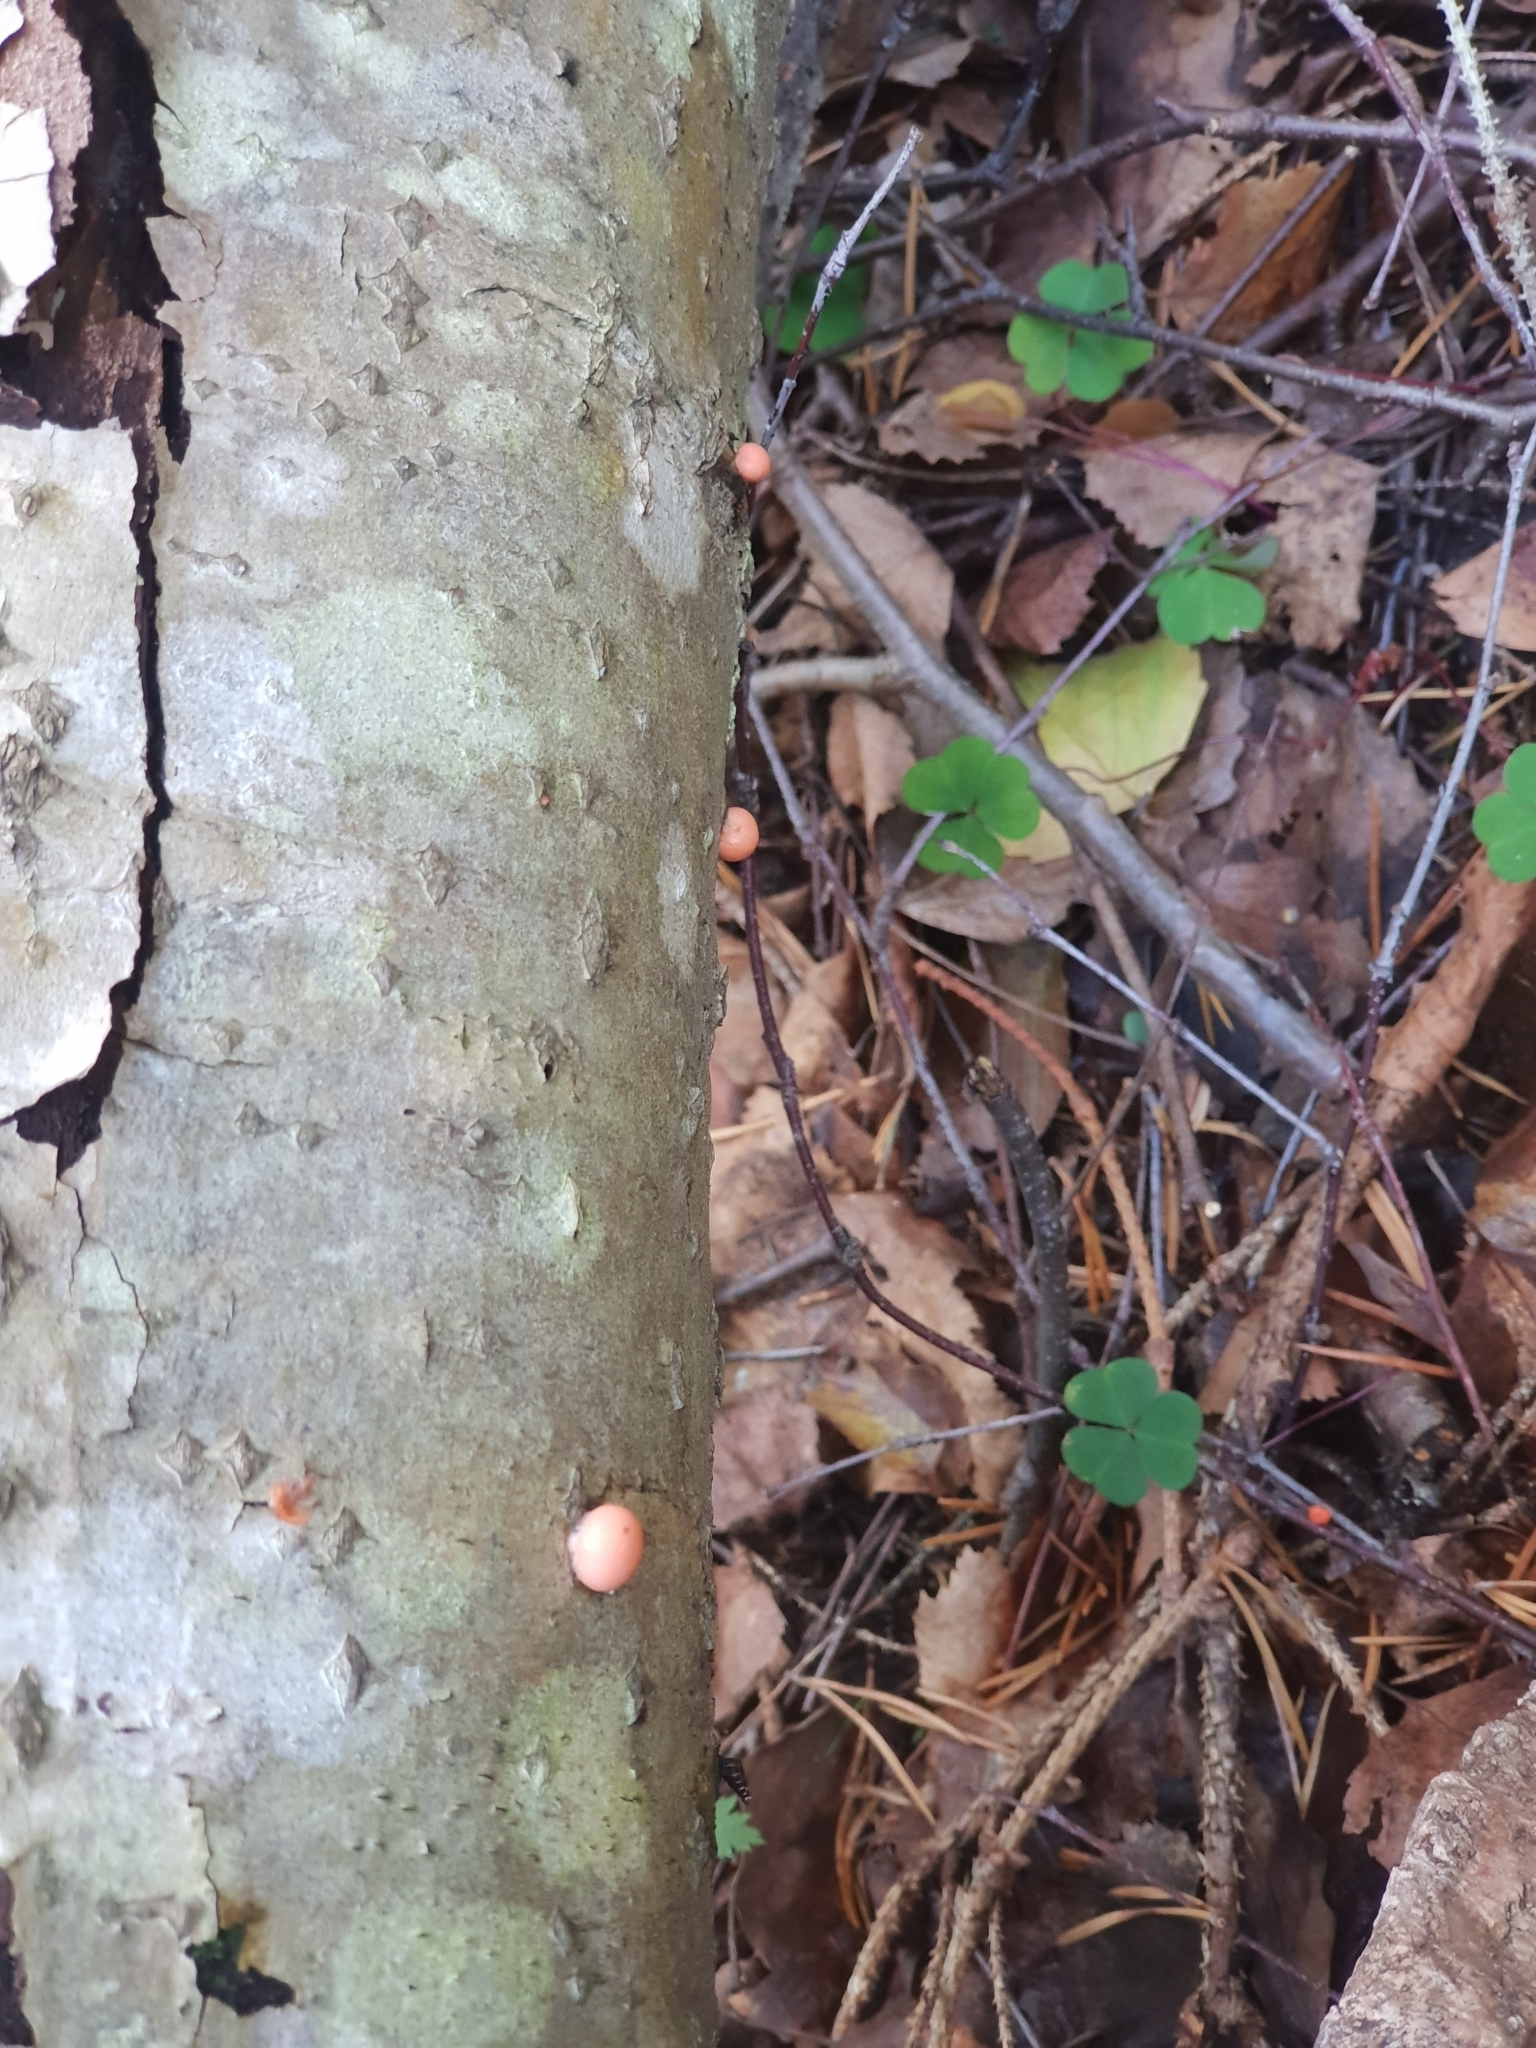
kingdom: Protozoa
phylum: Mycetozoa
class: Myxomycetes
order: Cribrariales
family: Tubiferaceae
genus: Lycogala
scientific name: Lycogala epidendrum
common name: Wolf's milk
